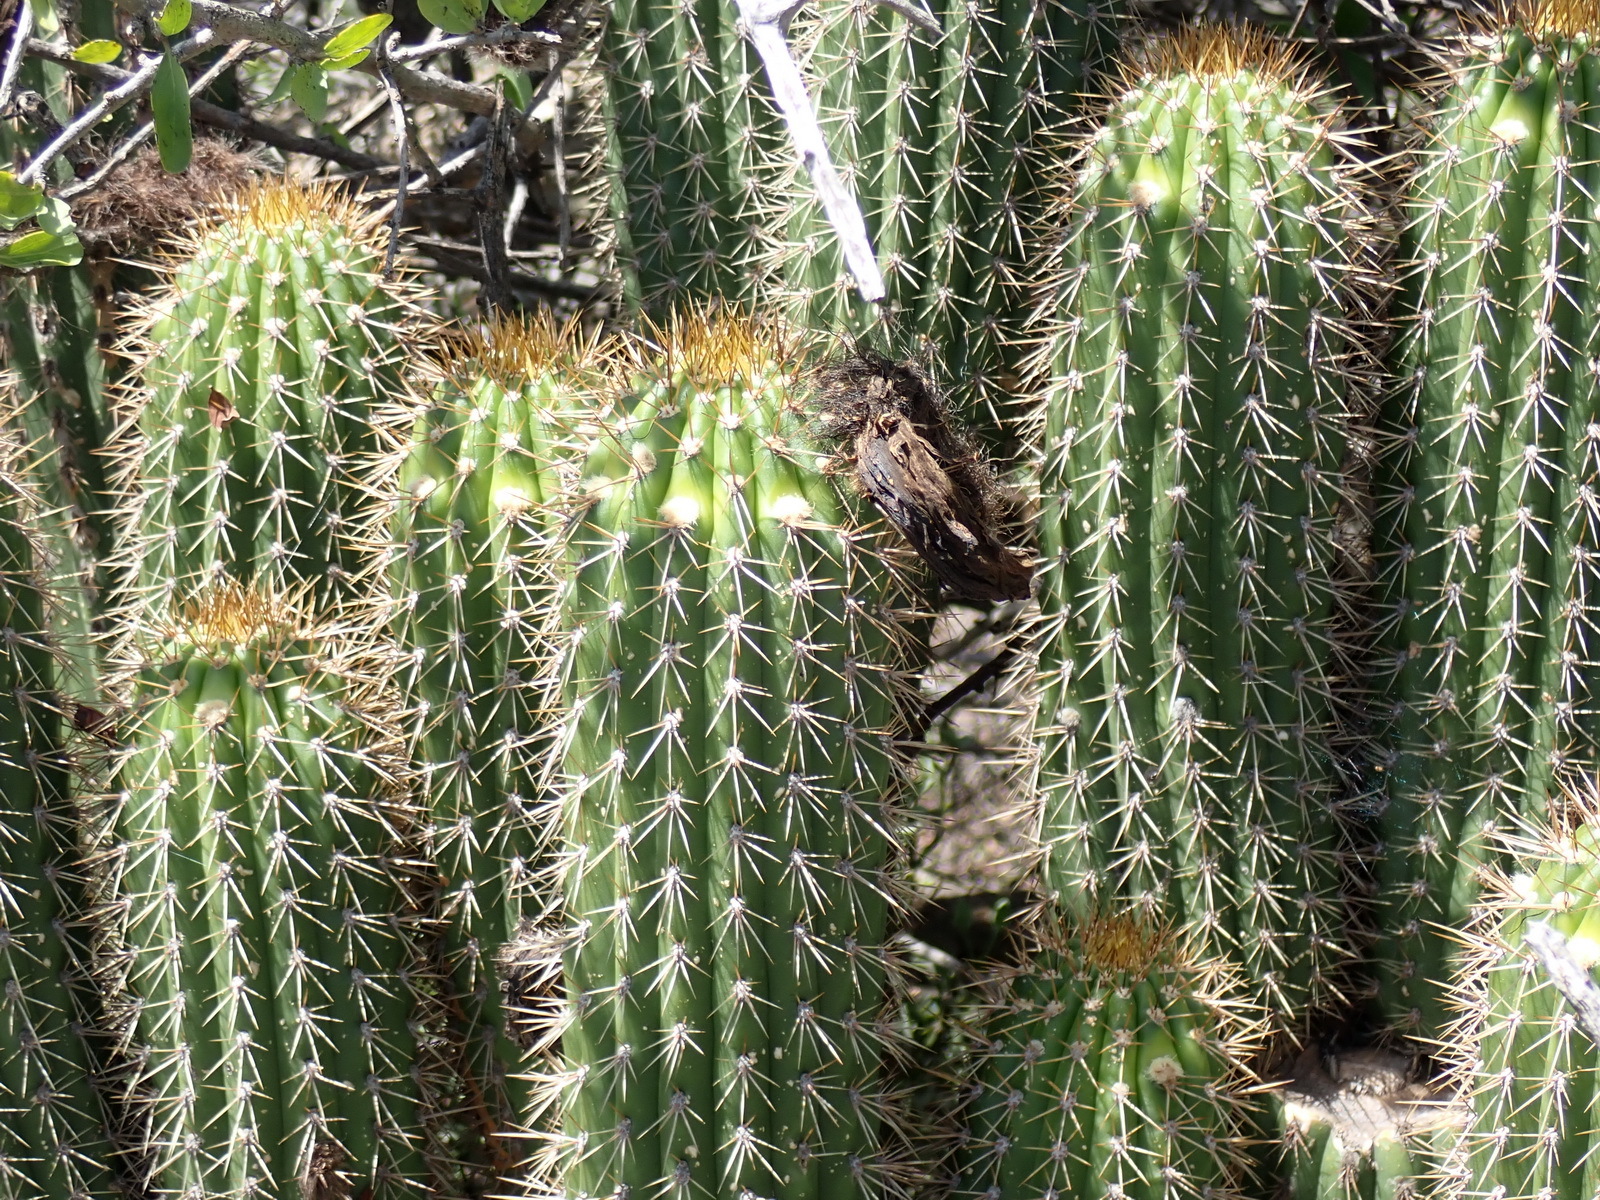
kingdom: Plantae
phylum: Tracheophyta
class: Magnoliopsida
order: Caryophyllales
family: Cactaceae
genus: Soehrensia
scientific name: Soehrensia spachiana
